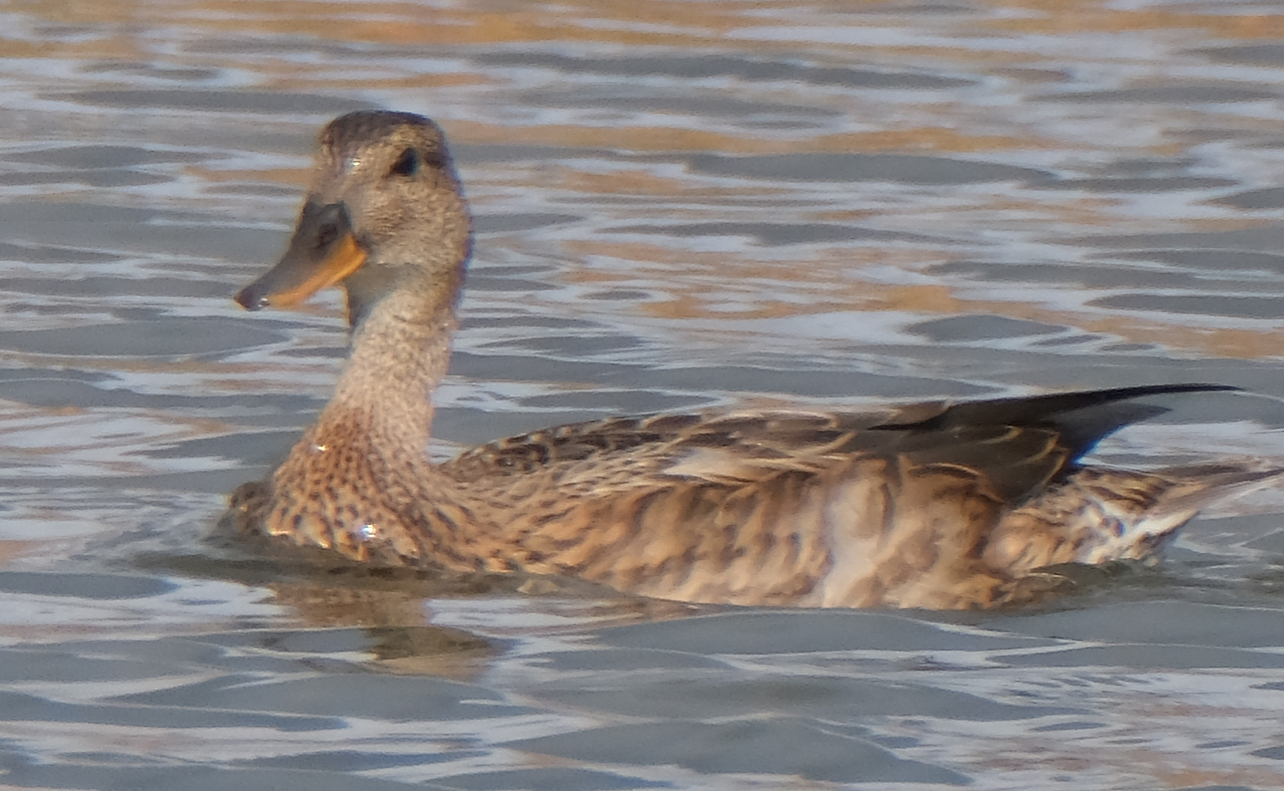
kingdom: Animalia
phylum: Chordata
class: Aves
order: Anseriformes
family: Anatidae
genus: Mareca
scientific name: Mareca strepera
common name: Gadwall
